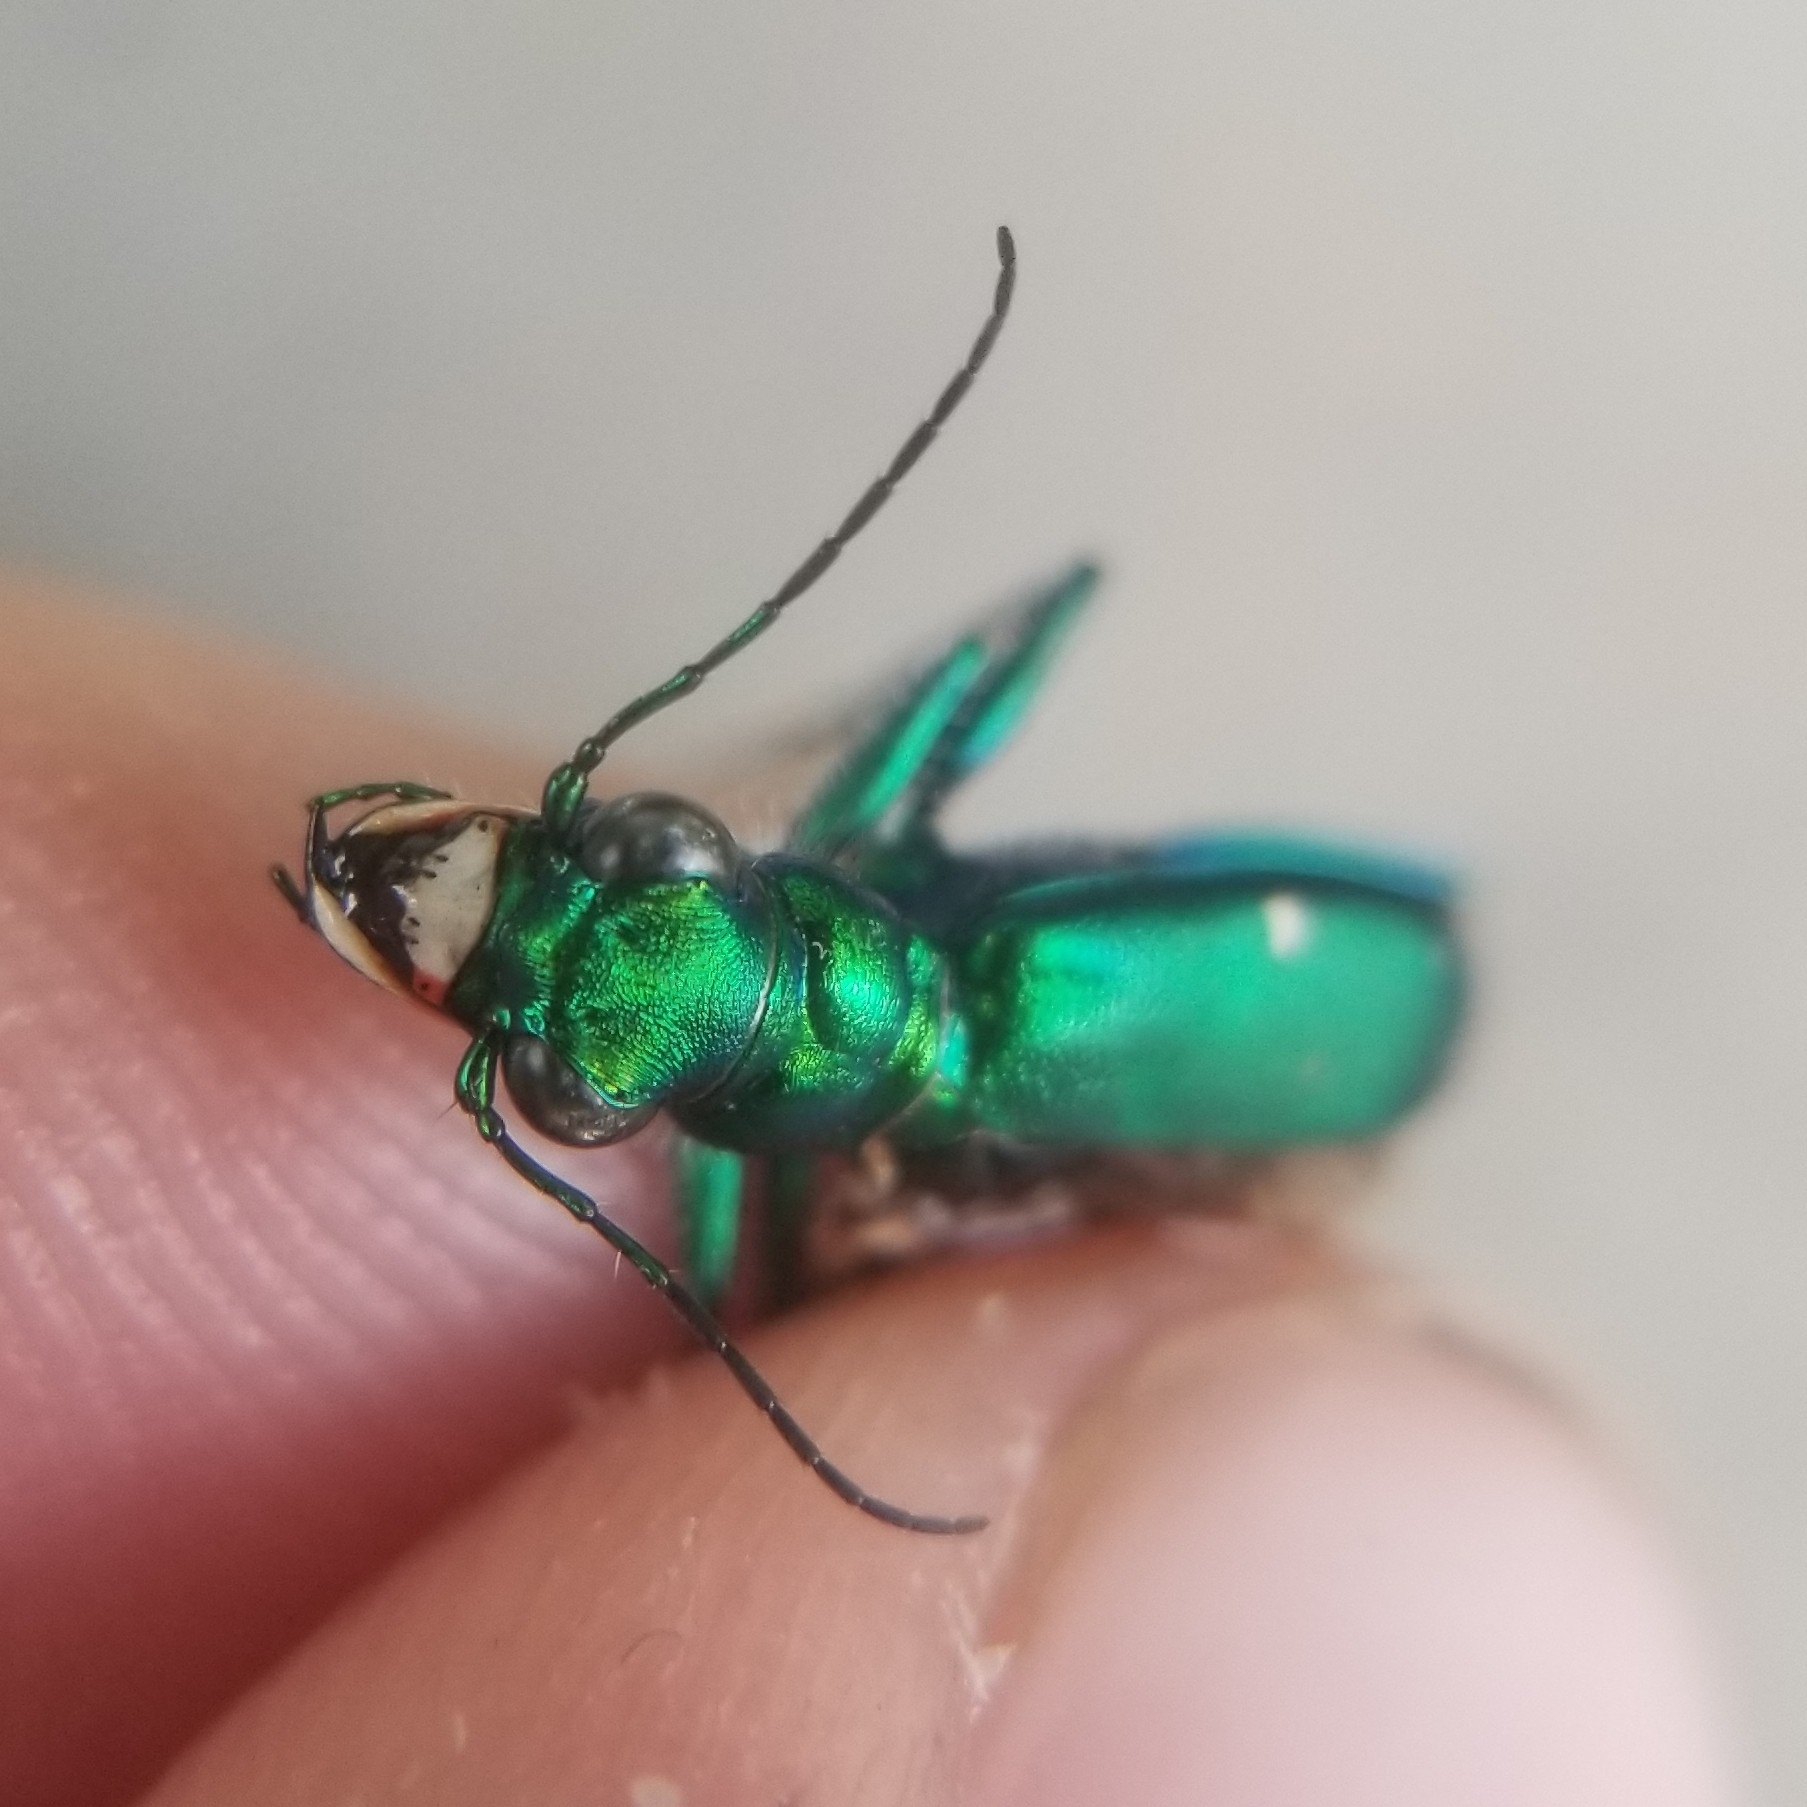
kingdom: Animalia
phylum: Arthropoda
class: Insecta
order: Coleoptera
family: Carabidae
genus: Cicindela
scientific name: Cicindela sexguttata
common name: Six-spotted tiger beetle
